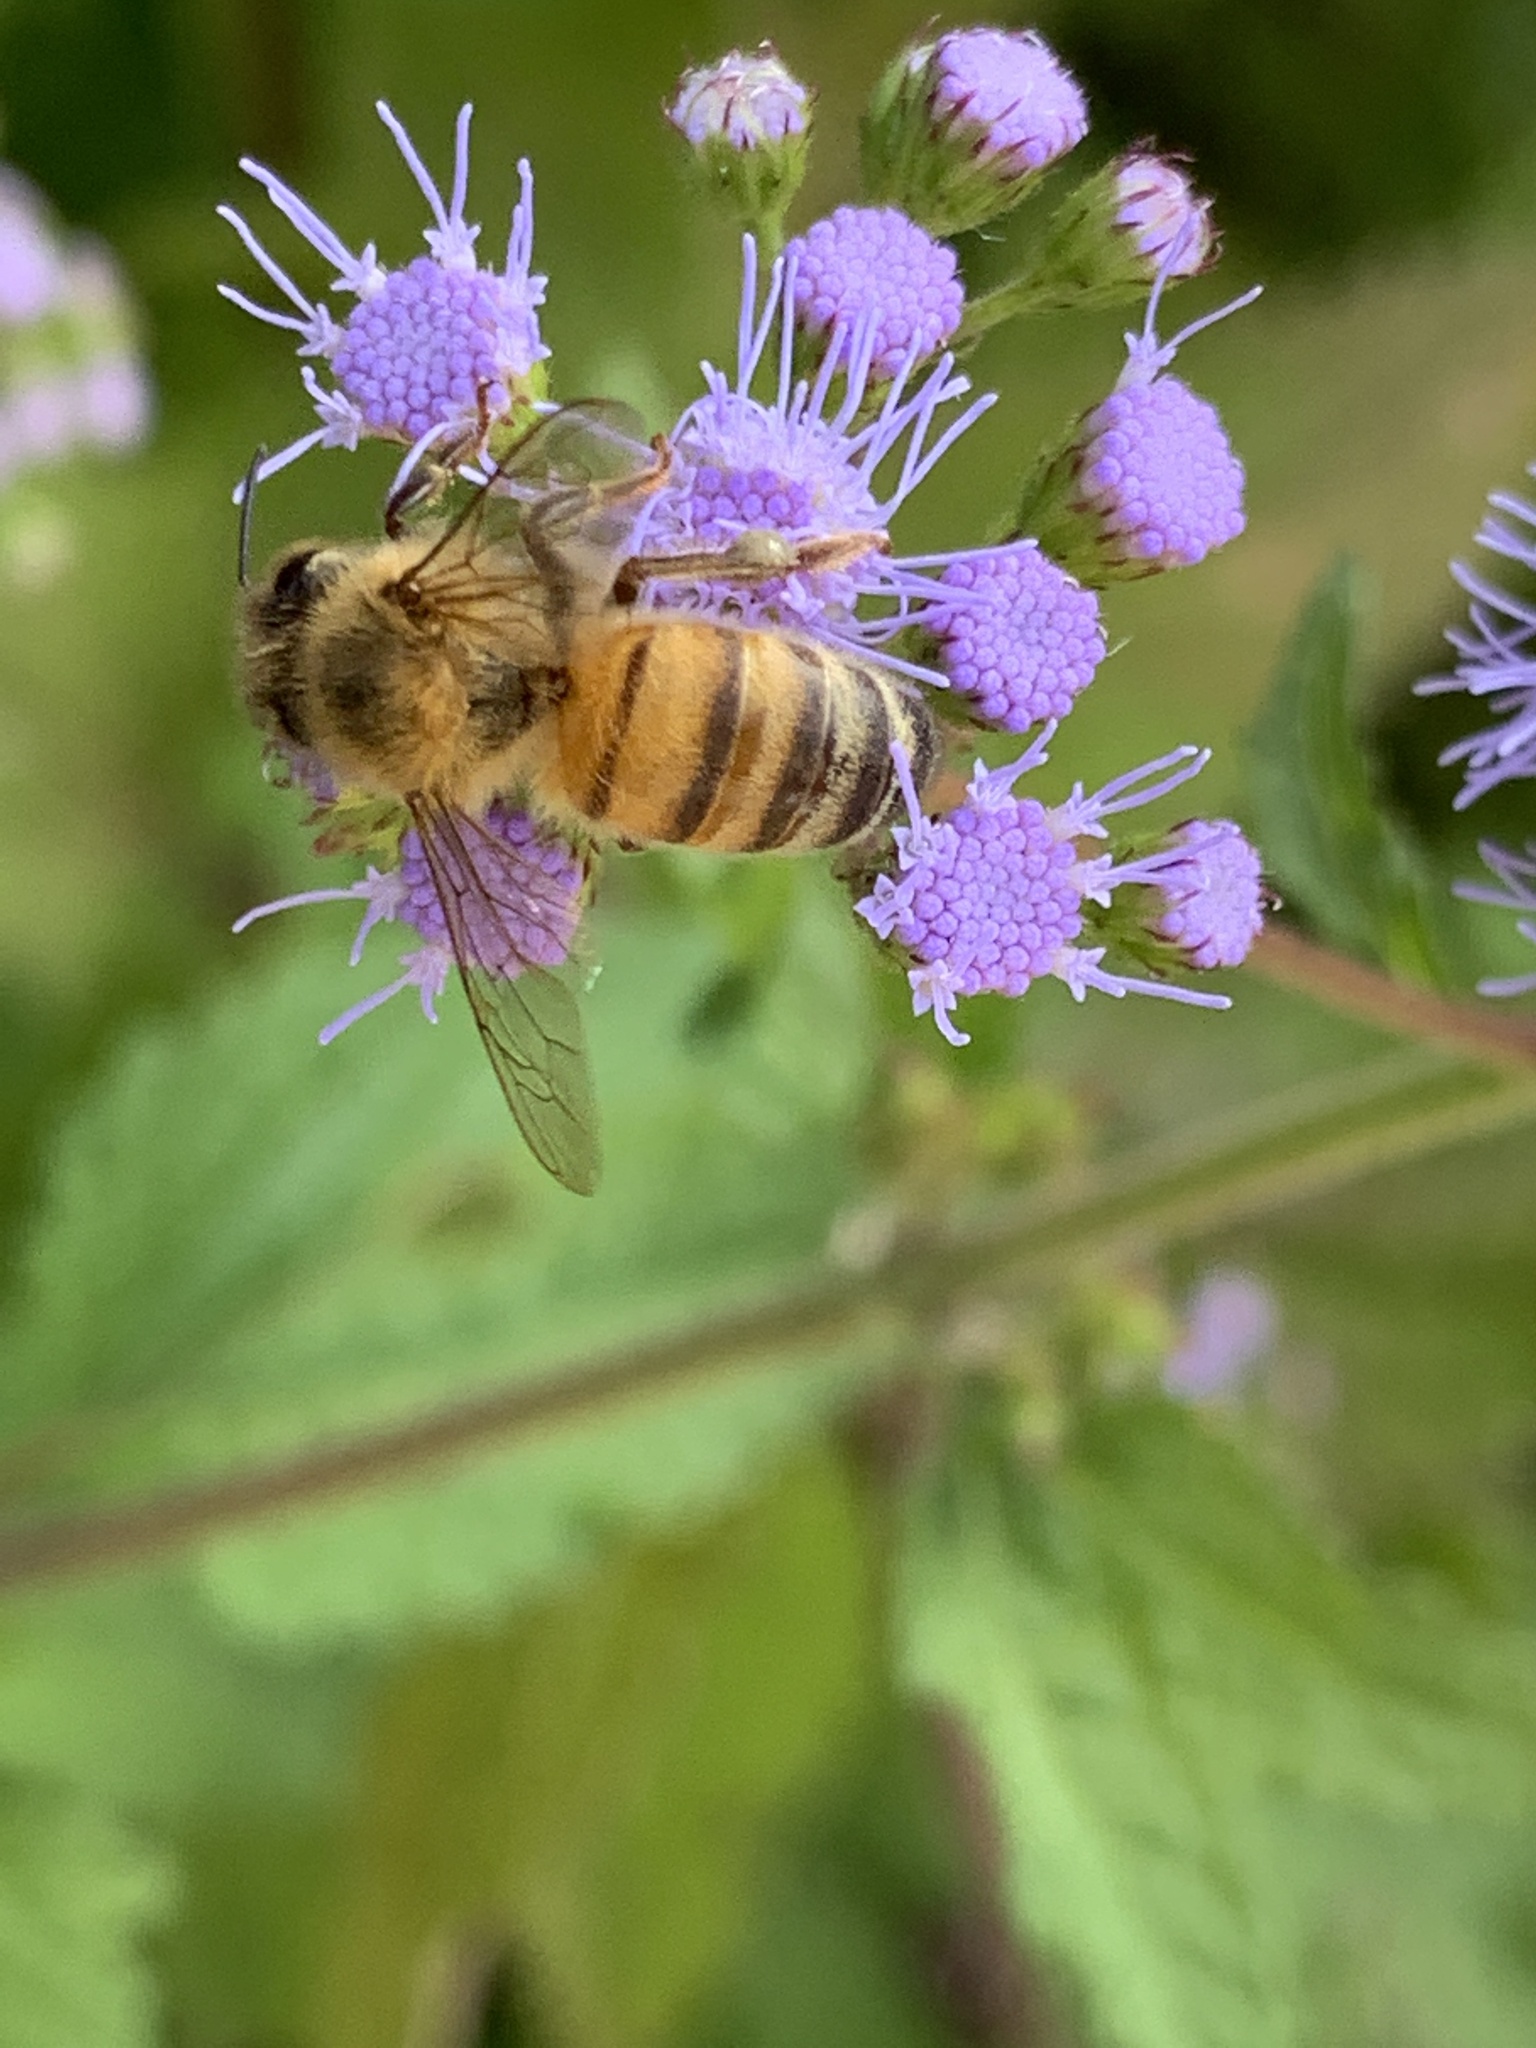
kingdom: Animalia
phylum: Arthropoda
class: Insecta
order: Hymenoptera
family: Apidae
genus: Apis
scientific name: Apis mellifera
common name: Honey bee
